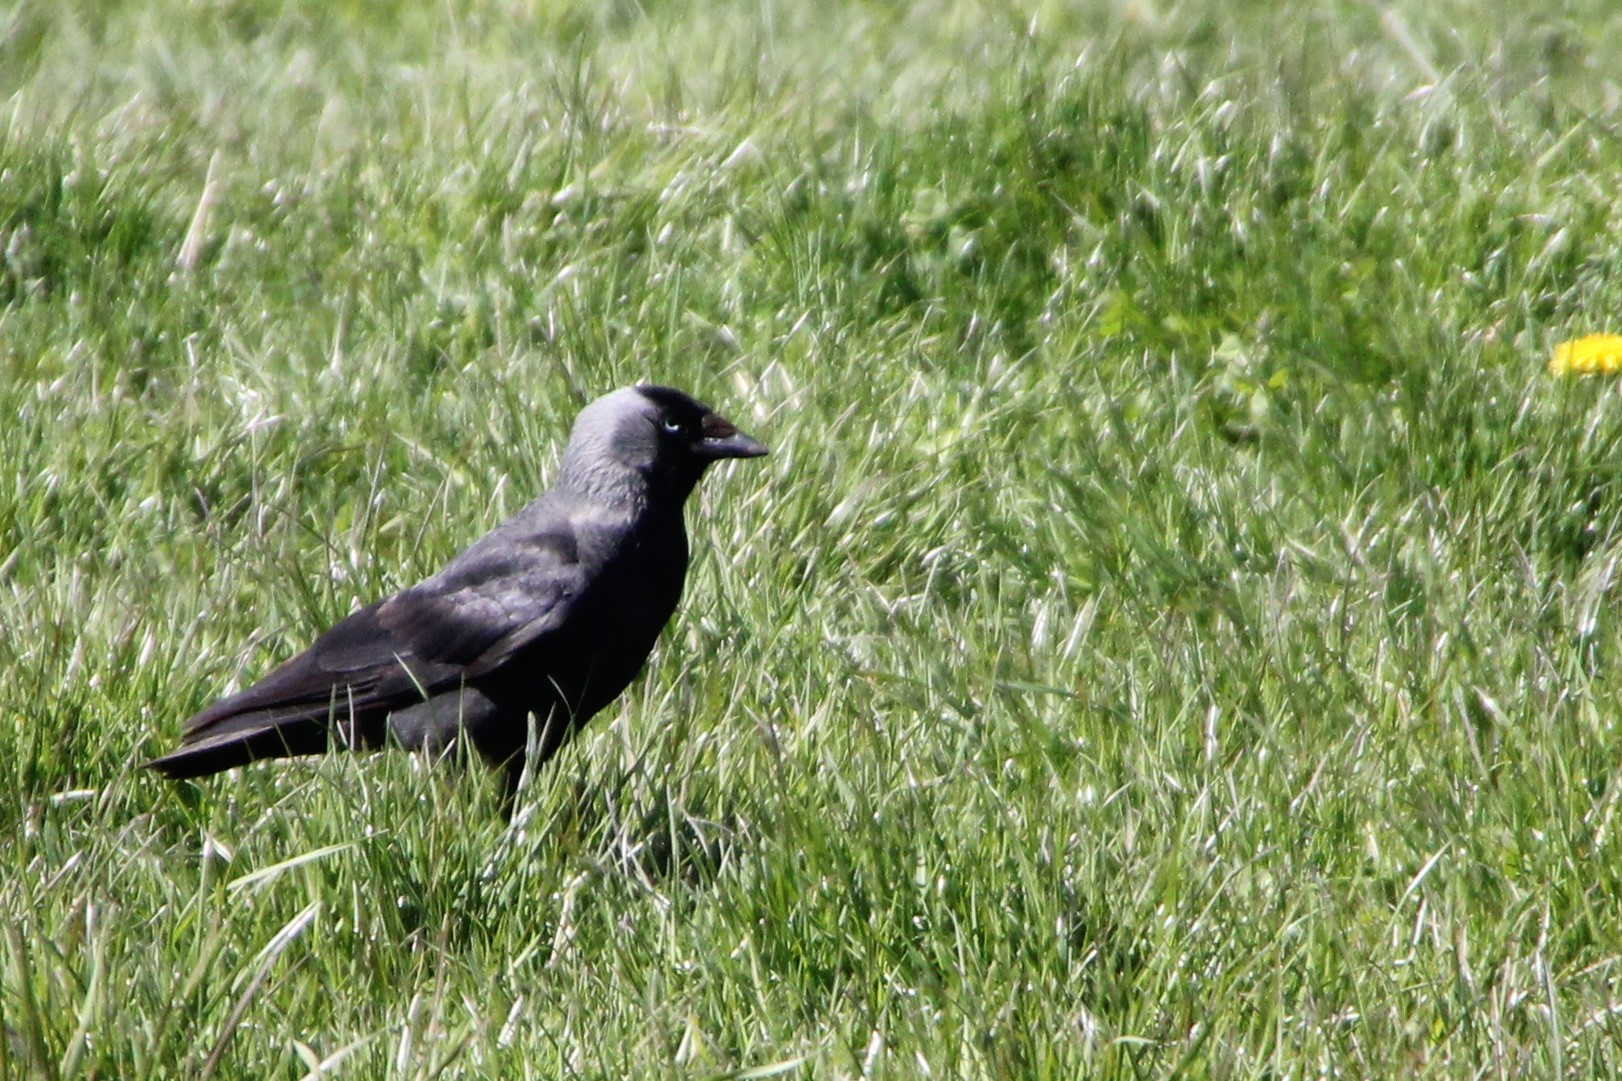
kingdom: Animalia
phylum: Chordata
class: Aves
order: Passeriformes
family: Corvidae
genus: Coloeus
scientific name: Coloeus monedula
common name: Western jackdaw
